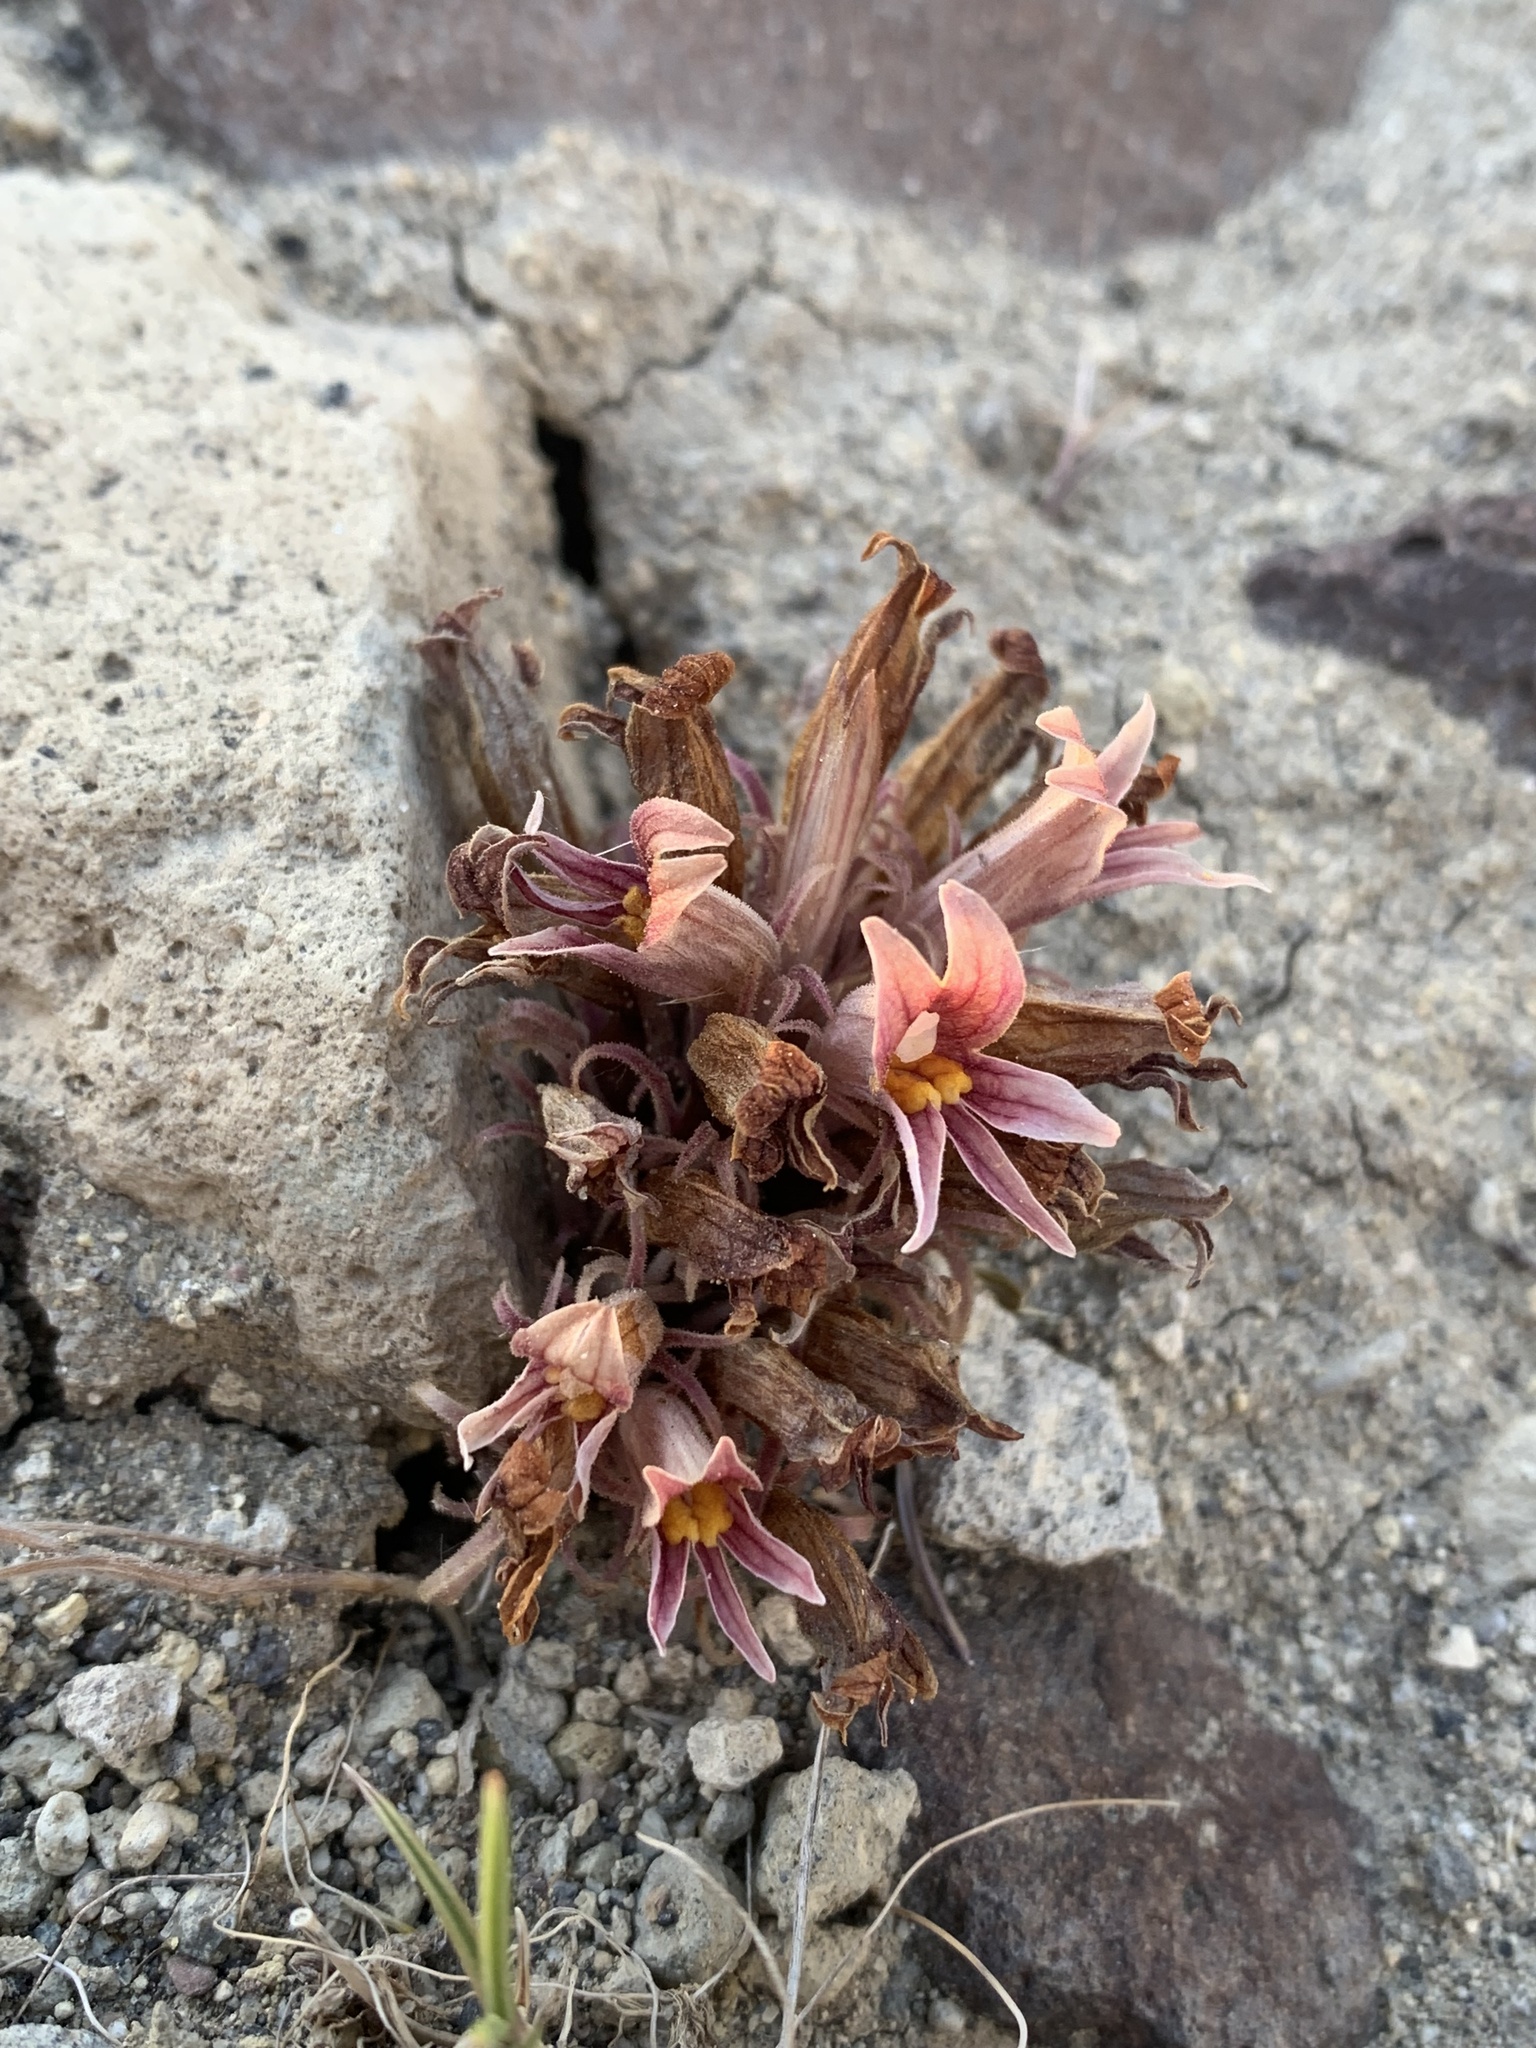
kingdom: Plantae
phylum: Tracheophyta
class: Magnoliopsida
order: Lamiales
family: Orobanchaceae
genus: Aphyllon
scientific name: Aphyllon corymbosum
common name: Flat-top broomrape
